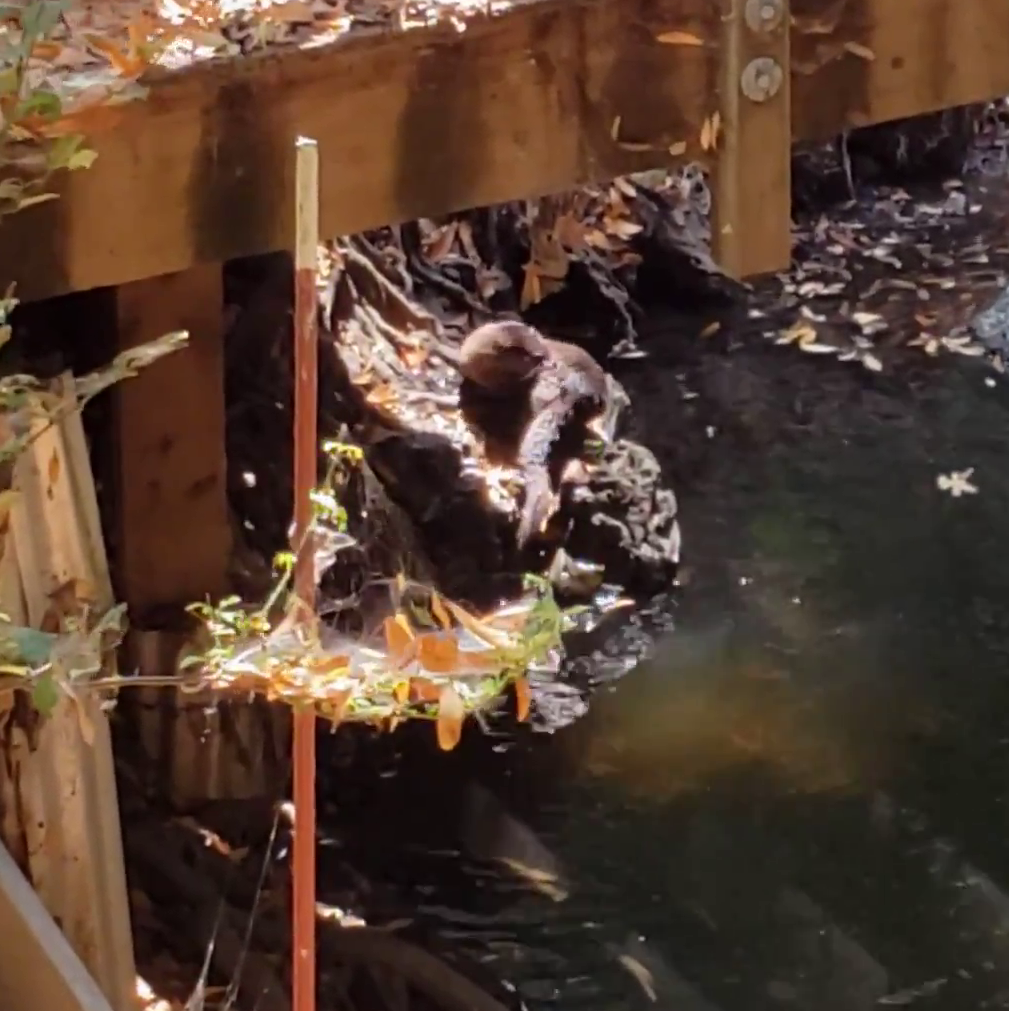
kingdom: Animalia
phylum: Chordata
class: Mammalia
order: Carnivora
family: Mustelidae
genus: Lontra
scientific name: Lontra canadensis
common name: North american river otter
